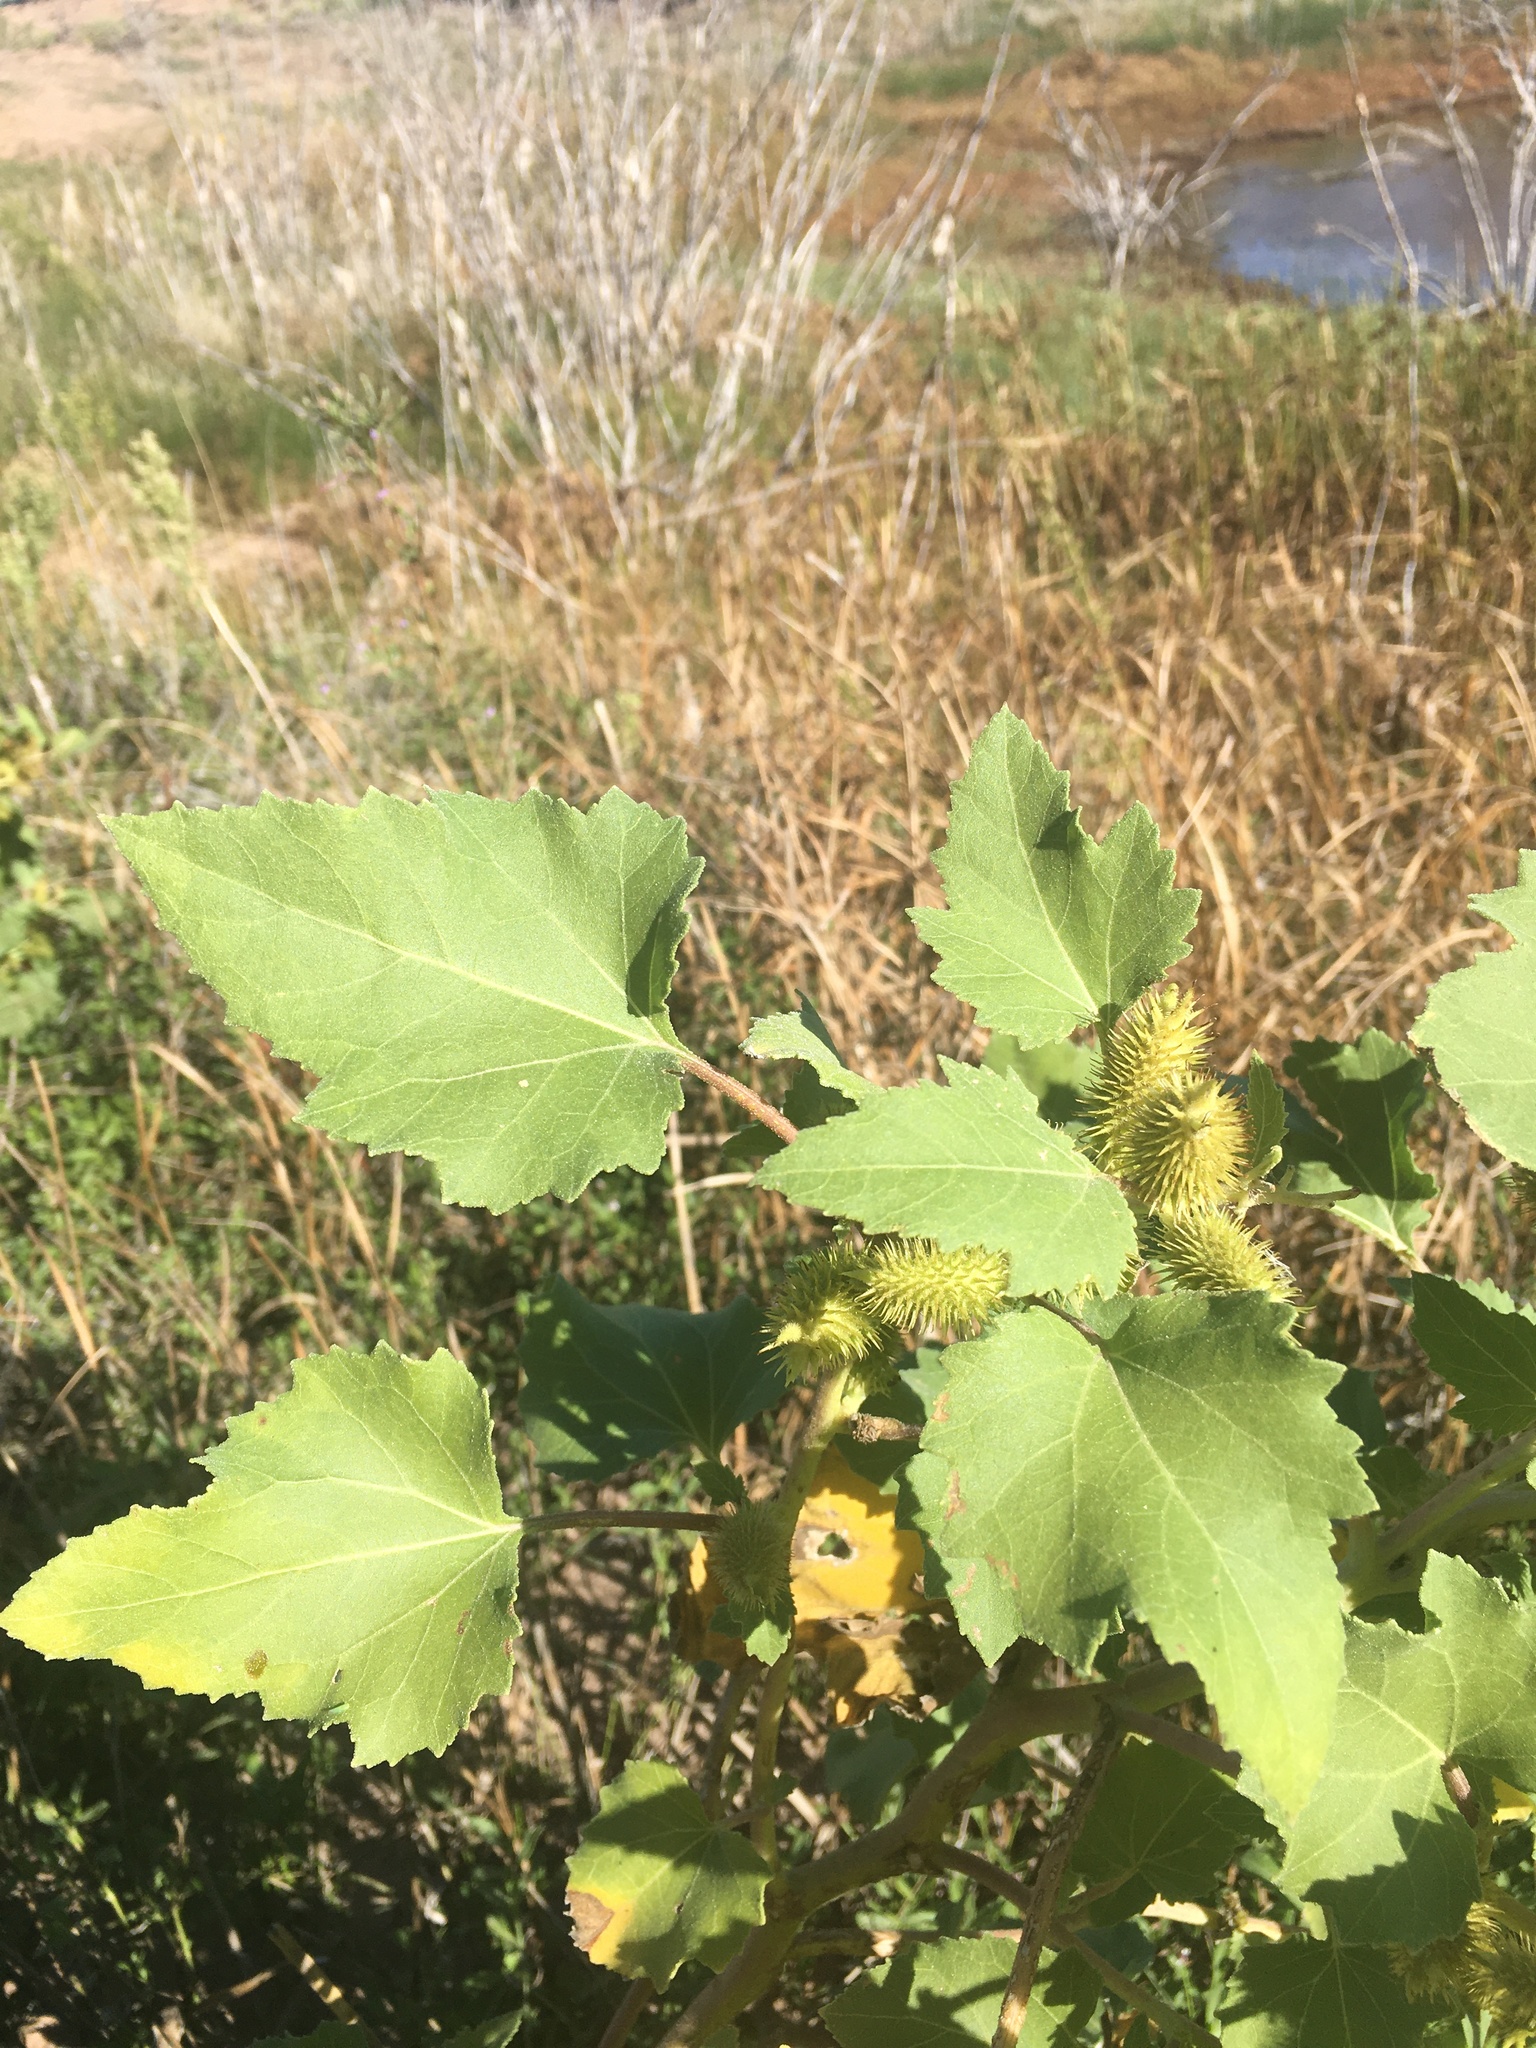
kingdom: Plantae
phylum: Tracheophyta
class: Magnoliopsida
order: Asterales
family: Asteraceae
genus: Xanthium
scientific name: Xanthium strumarium
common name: Rough cocklebur
